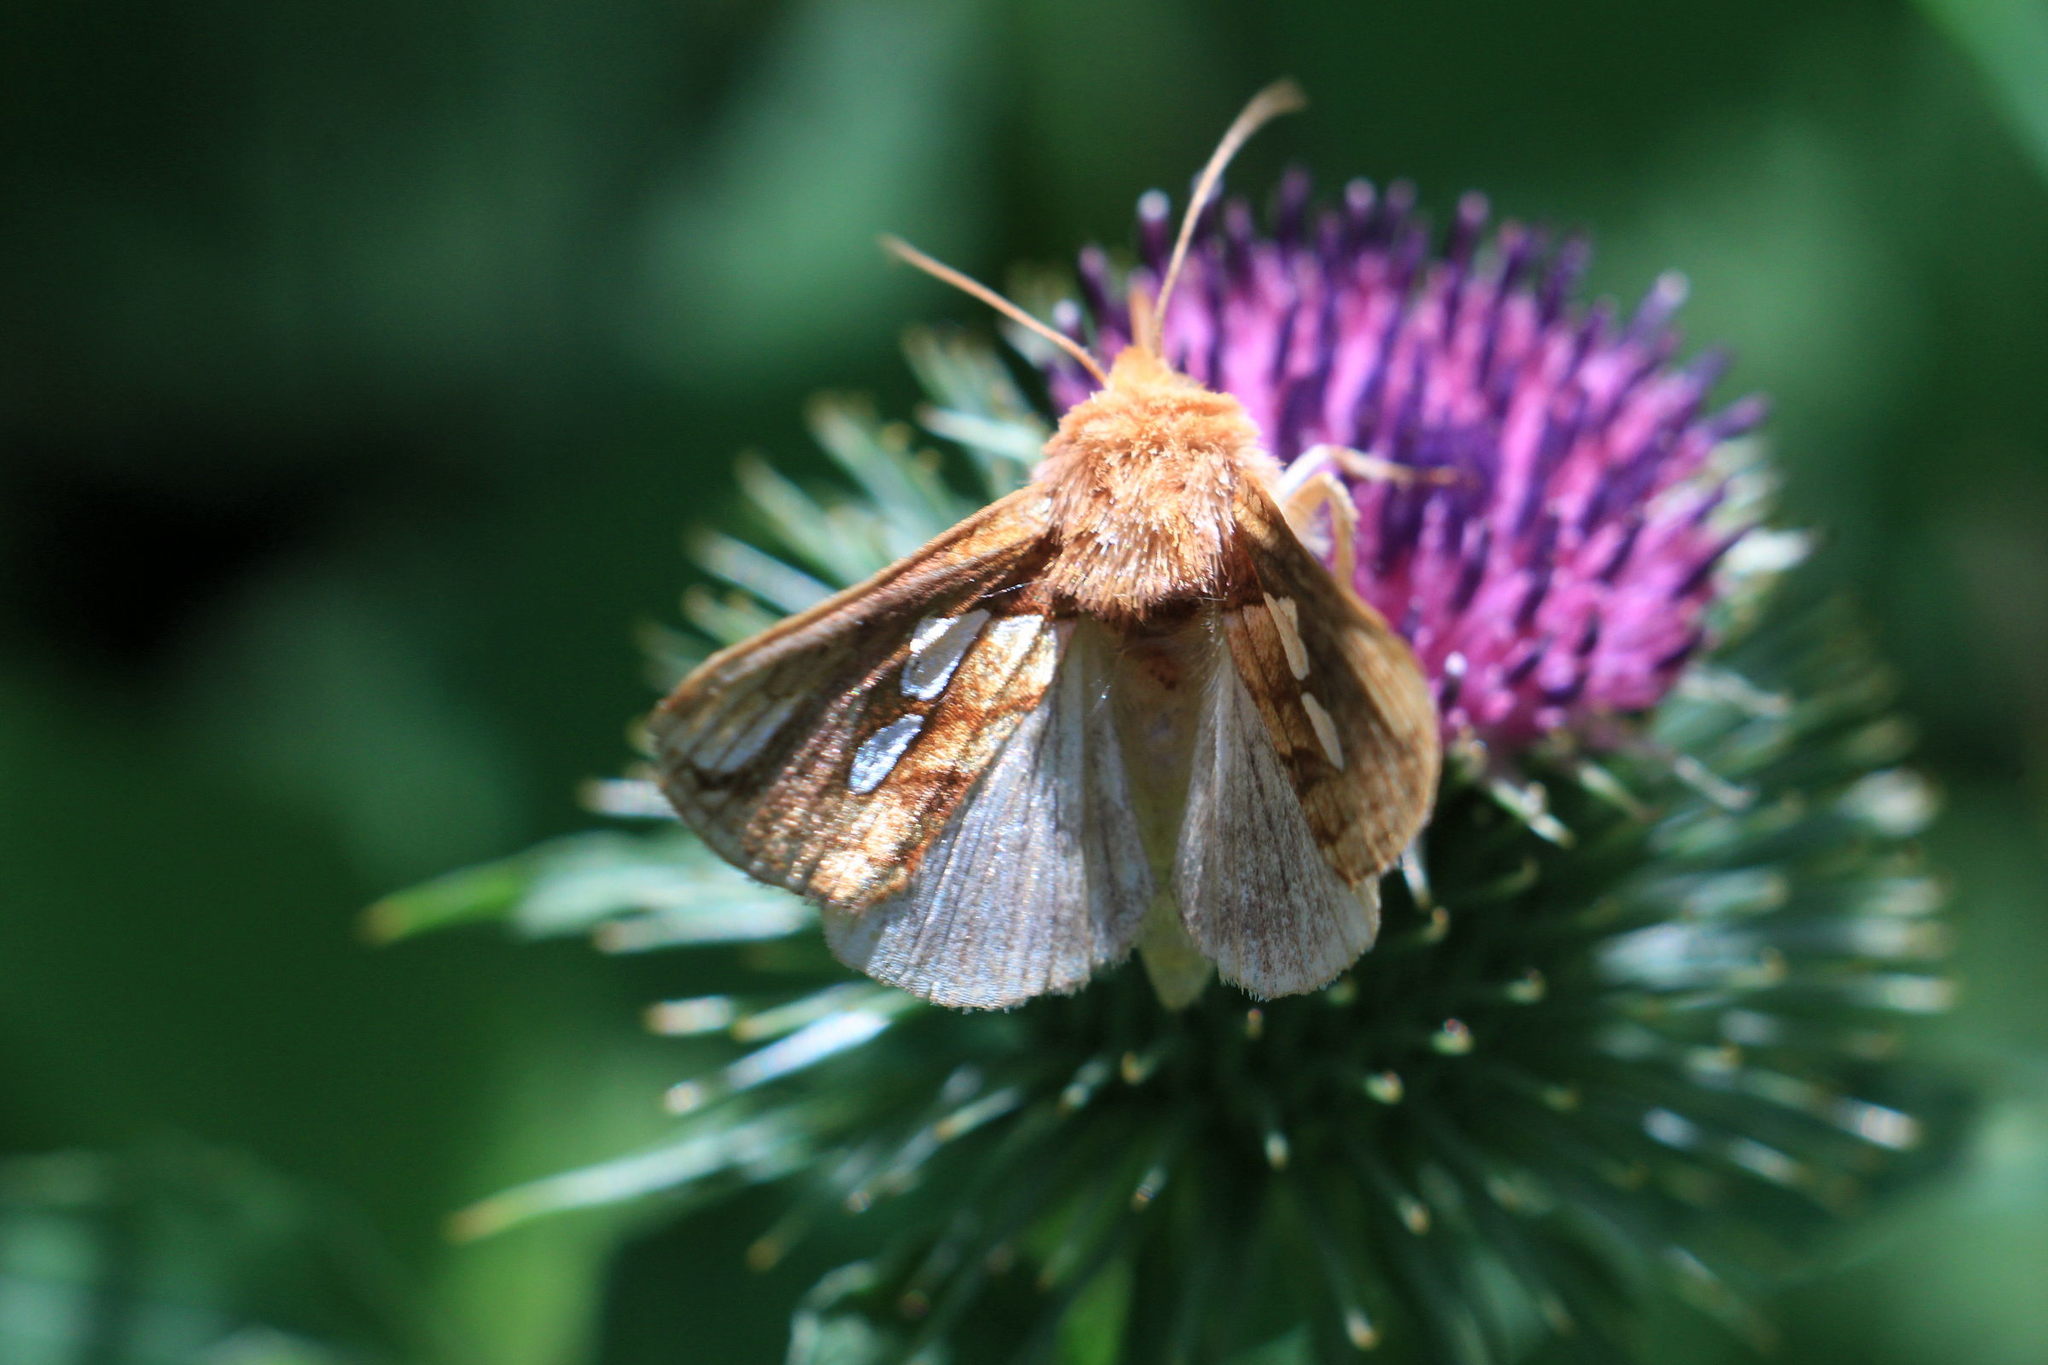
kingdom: Animalia
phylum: Arthropoda
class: Insecta
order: Lepidoptera
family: Noctuidae
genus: Plusia
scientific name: Plusia festucae
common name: Gold spot
